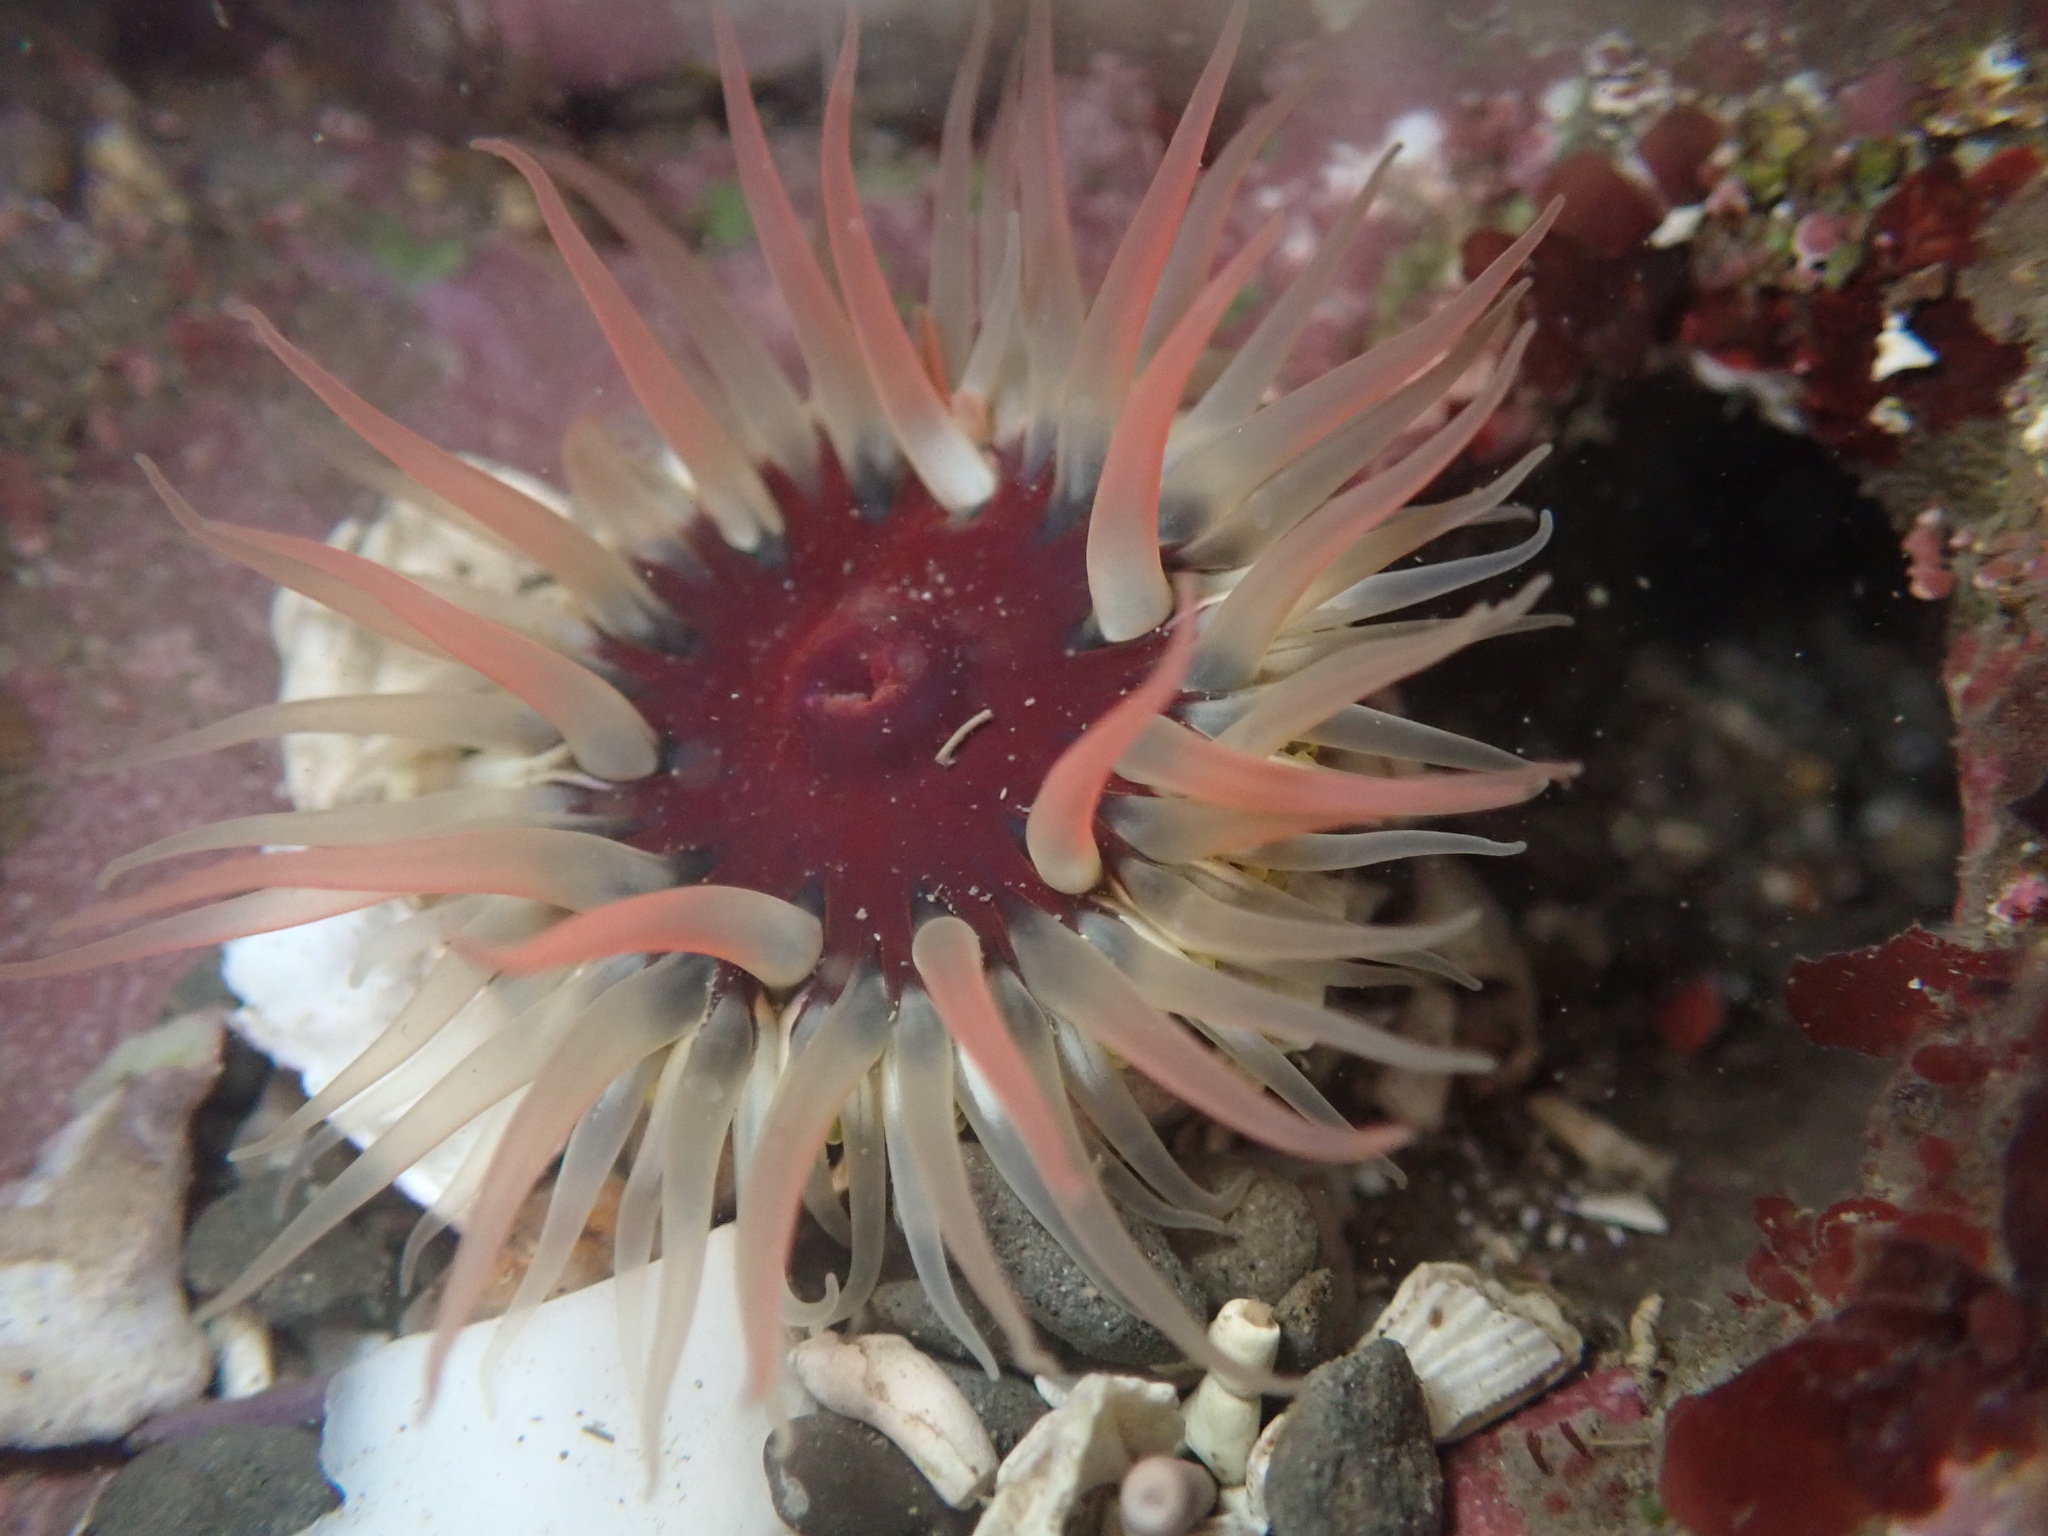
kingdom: Animalia
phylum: Cnidaria
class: Anthozoa
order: Actiniaria
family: Actiniidae
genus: Anthopleura
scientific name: Anthopleura artemisia
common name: Buried sea anemone
